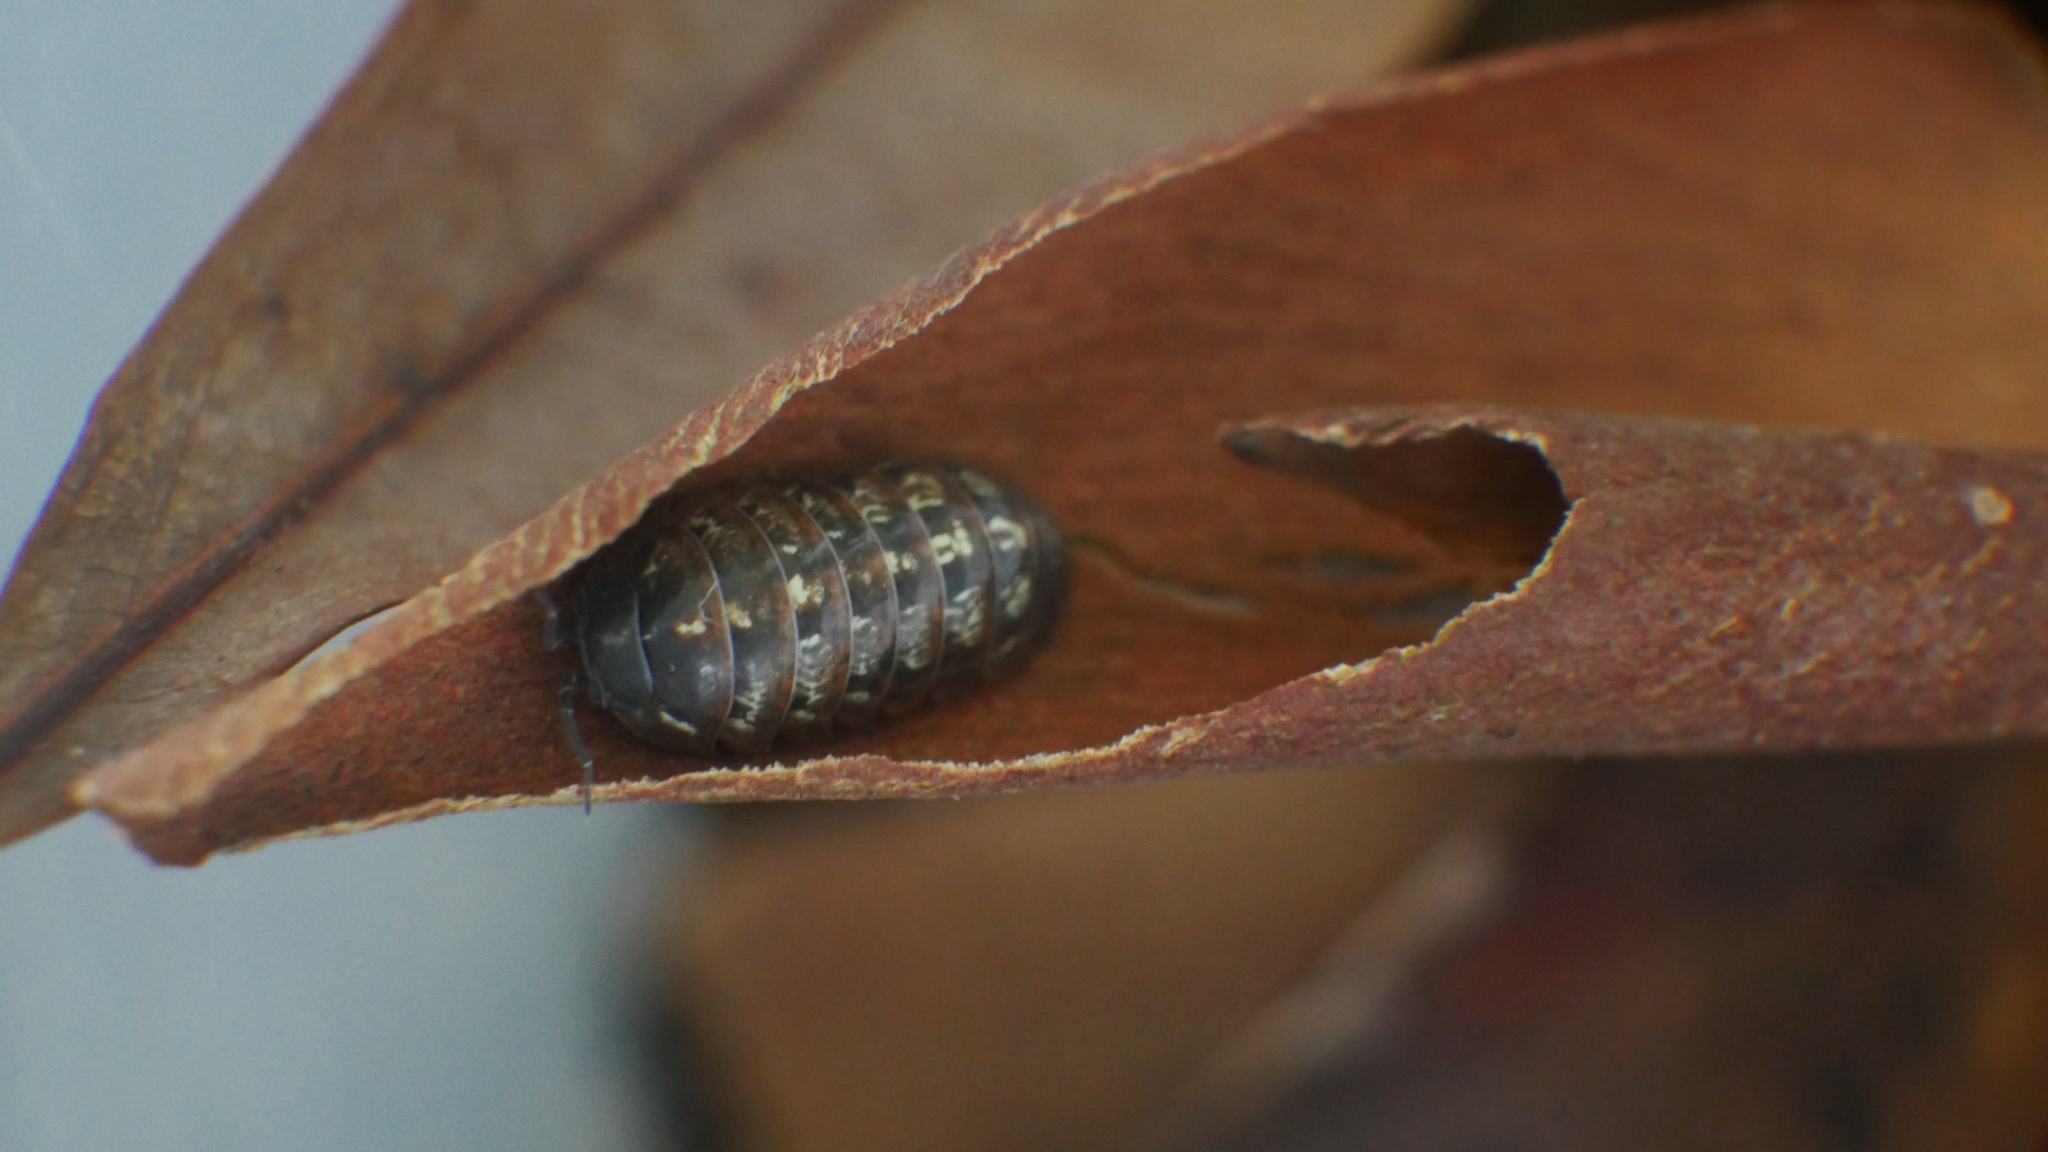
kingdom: Animalia
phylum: Arthropoda
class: Malacostraca
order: Isopoda
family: Armadillidiidae
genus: Armadillidium
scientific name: Armadillidium vulgare
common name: Common pill woodlouse
